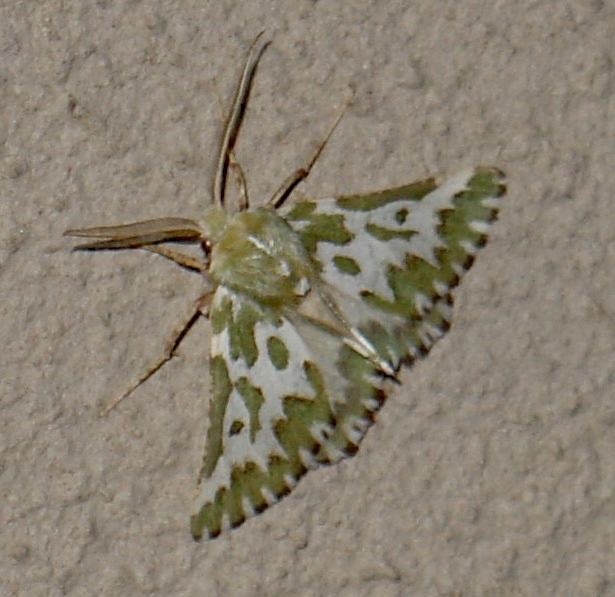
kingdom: Animalia
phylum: Arthropoda
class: Insecta
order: Lepidoptera
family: Geometridae
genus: Axiodes
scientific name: Axiodes bifasciata
